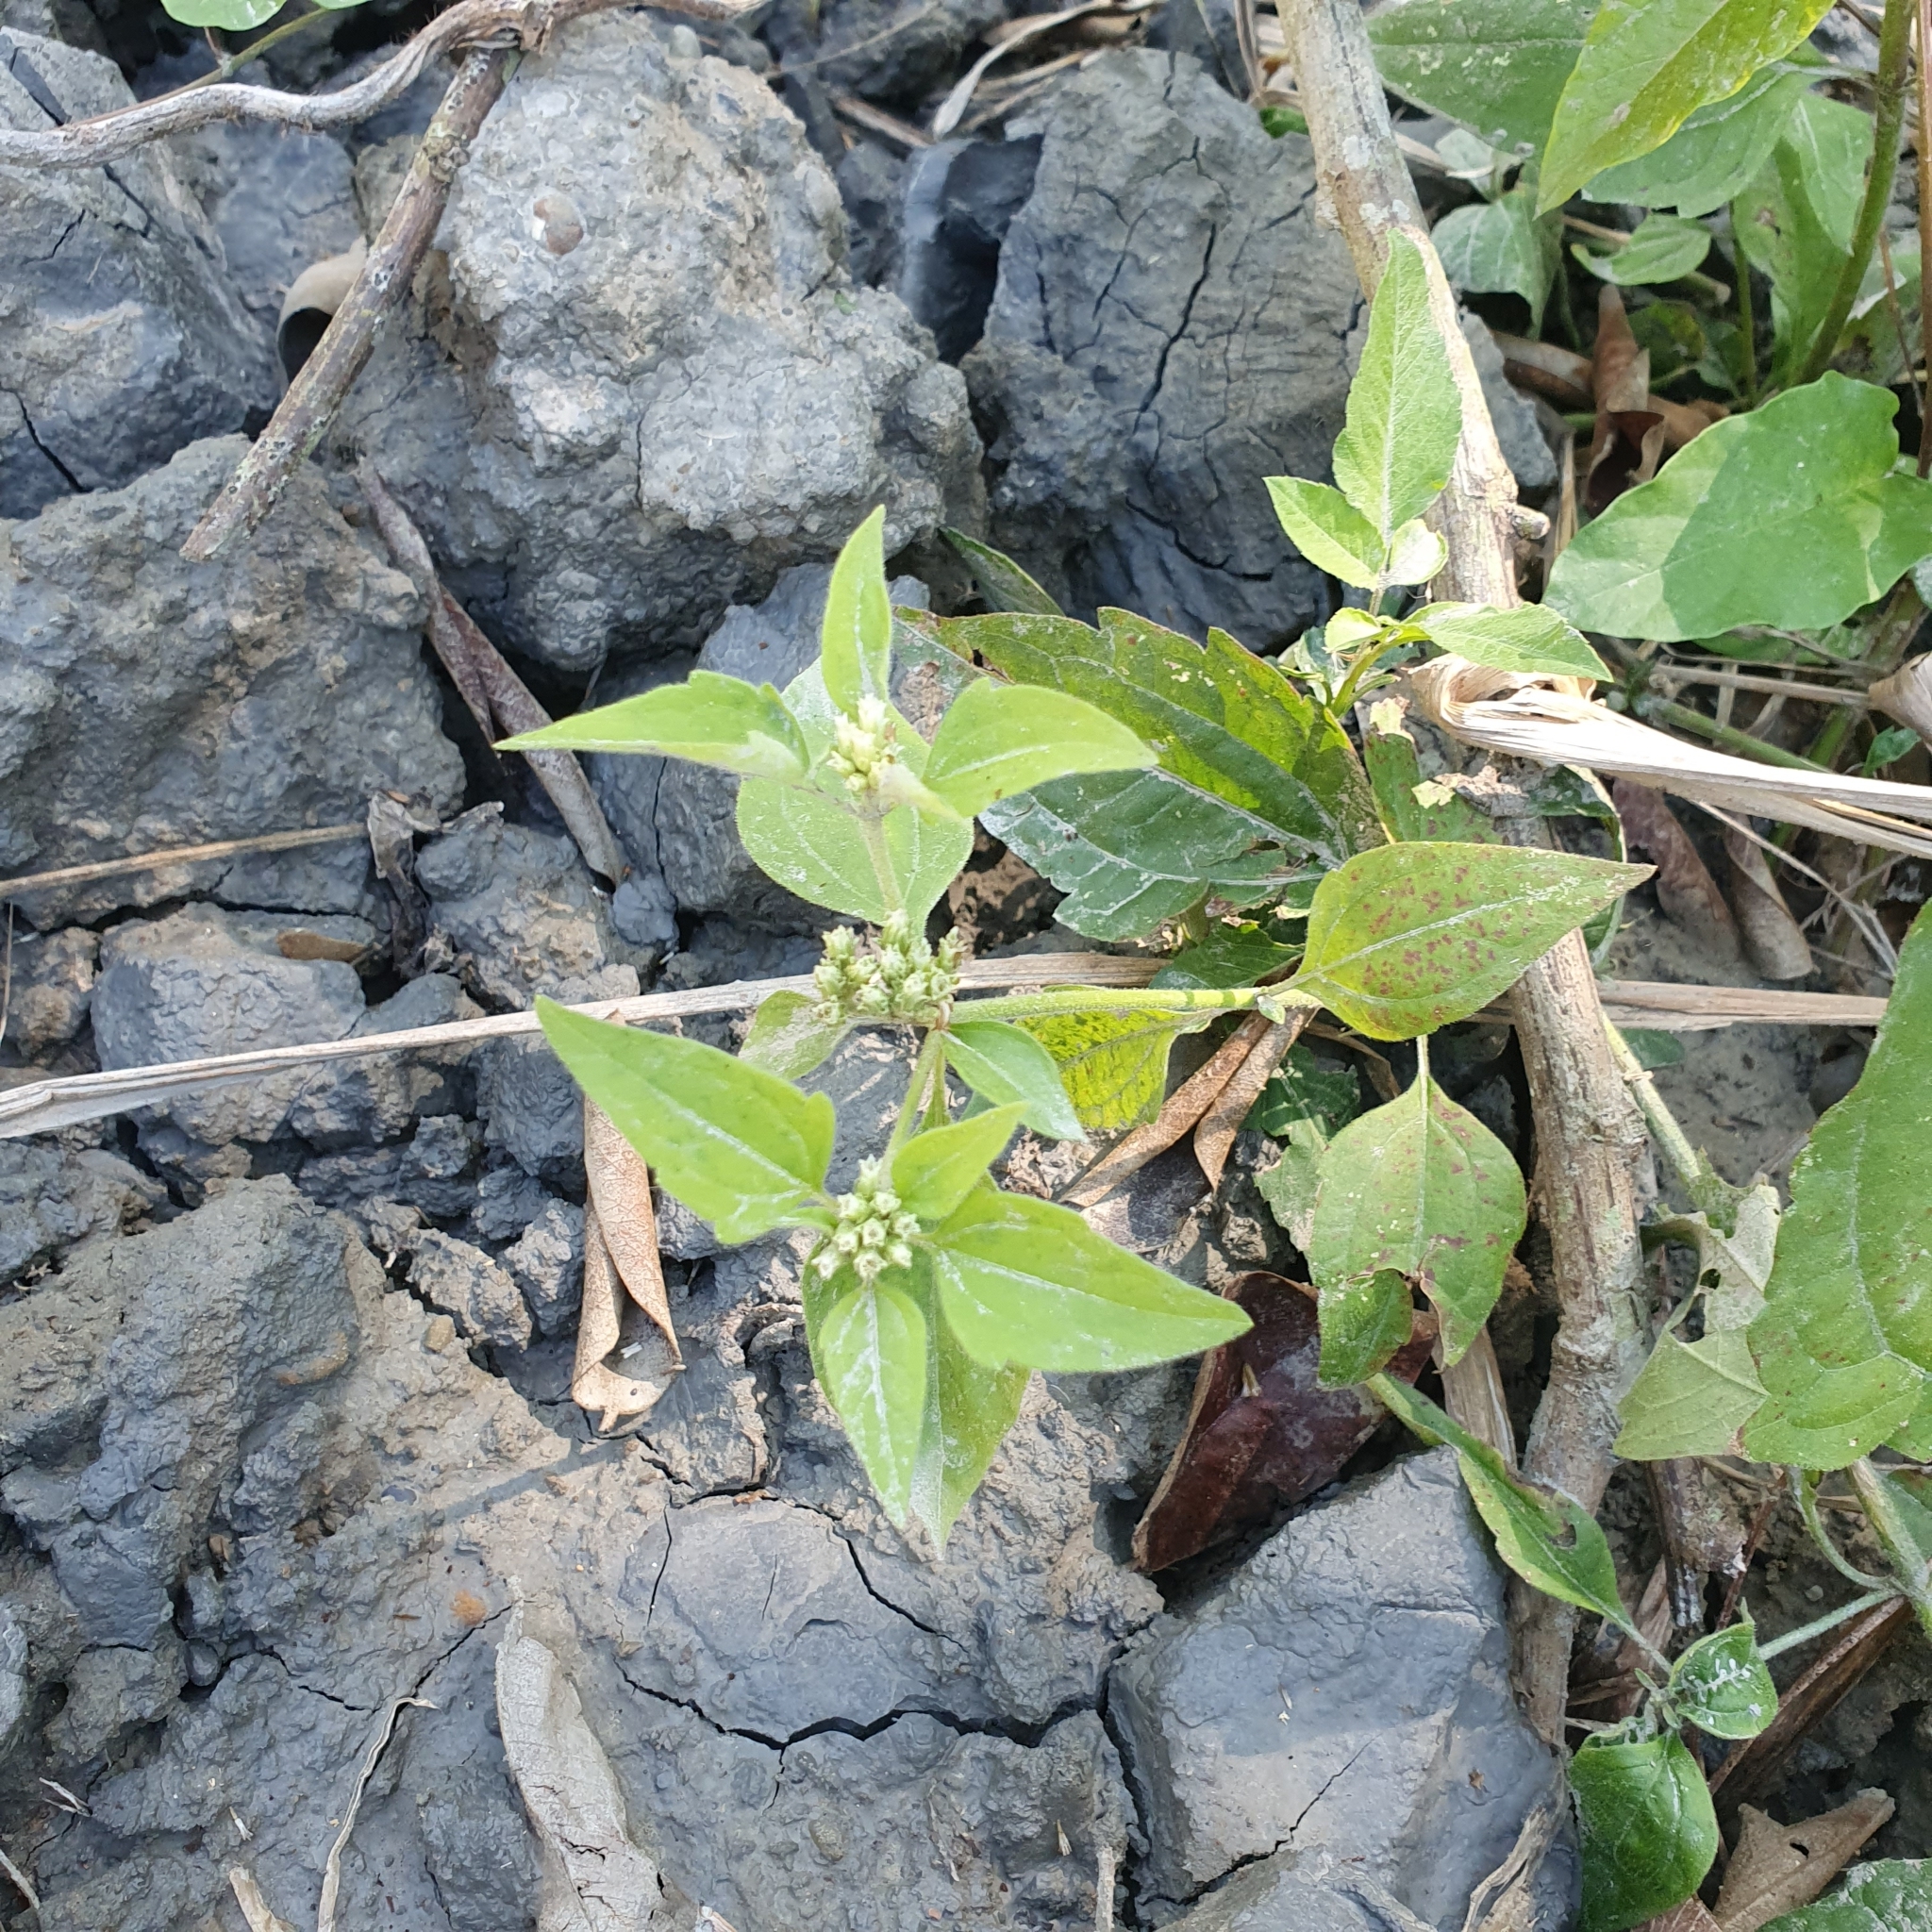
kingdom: Plantae
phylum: Tracheophyta
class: Magnoliopsida
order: Asterales
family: Asteraceae
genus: Chromolaena
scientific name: Chromolaena odorata
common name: Siamweed
